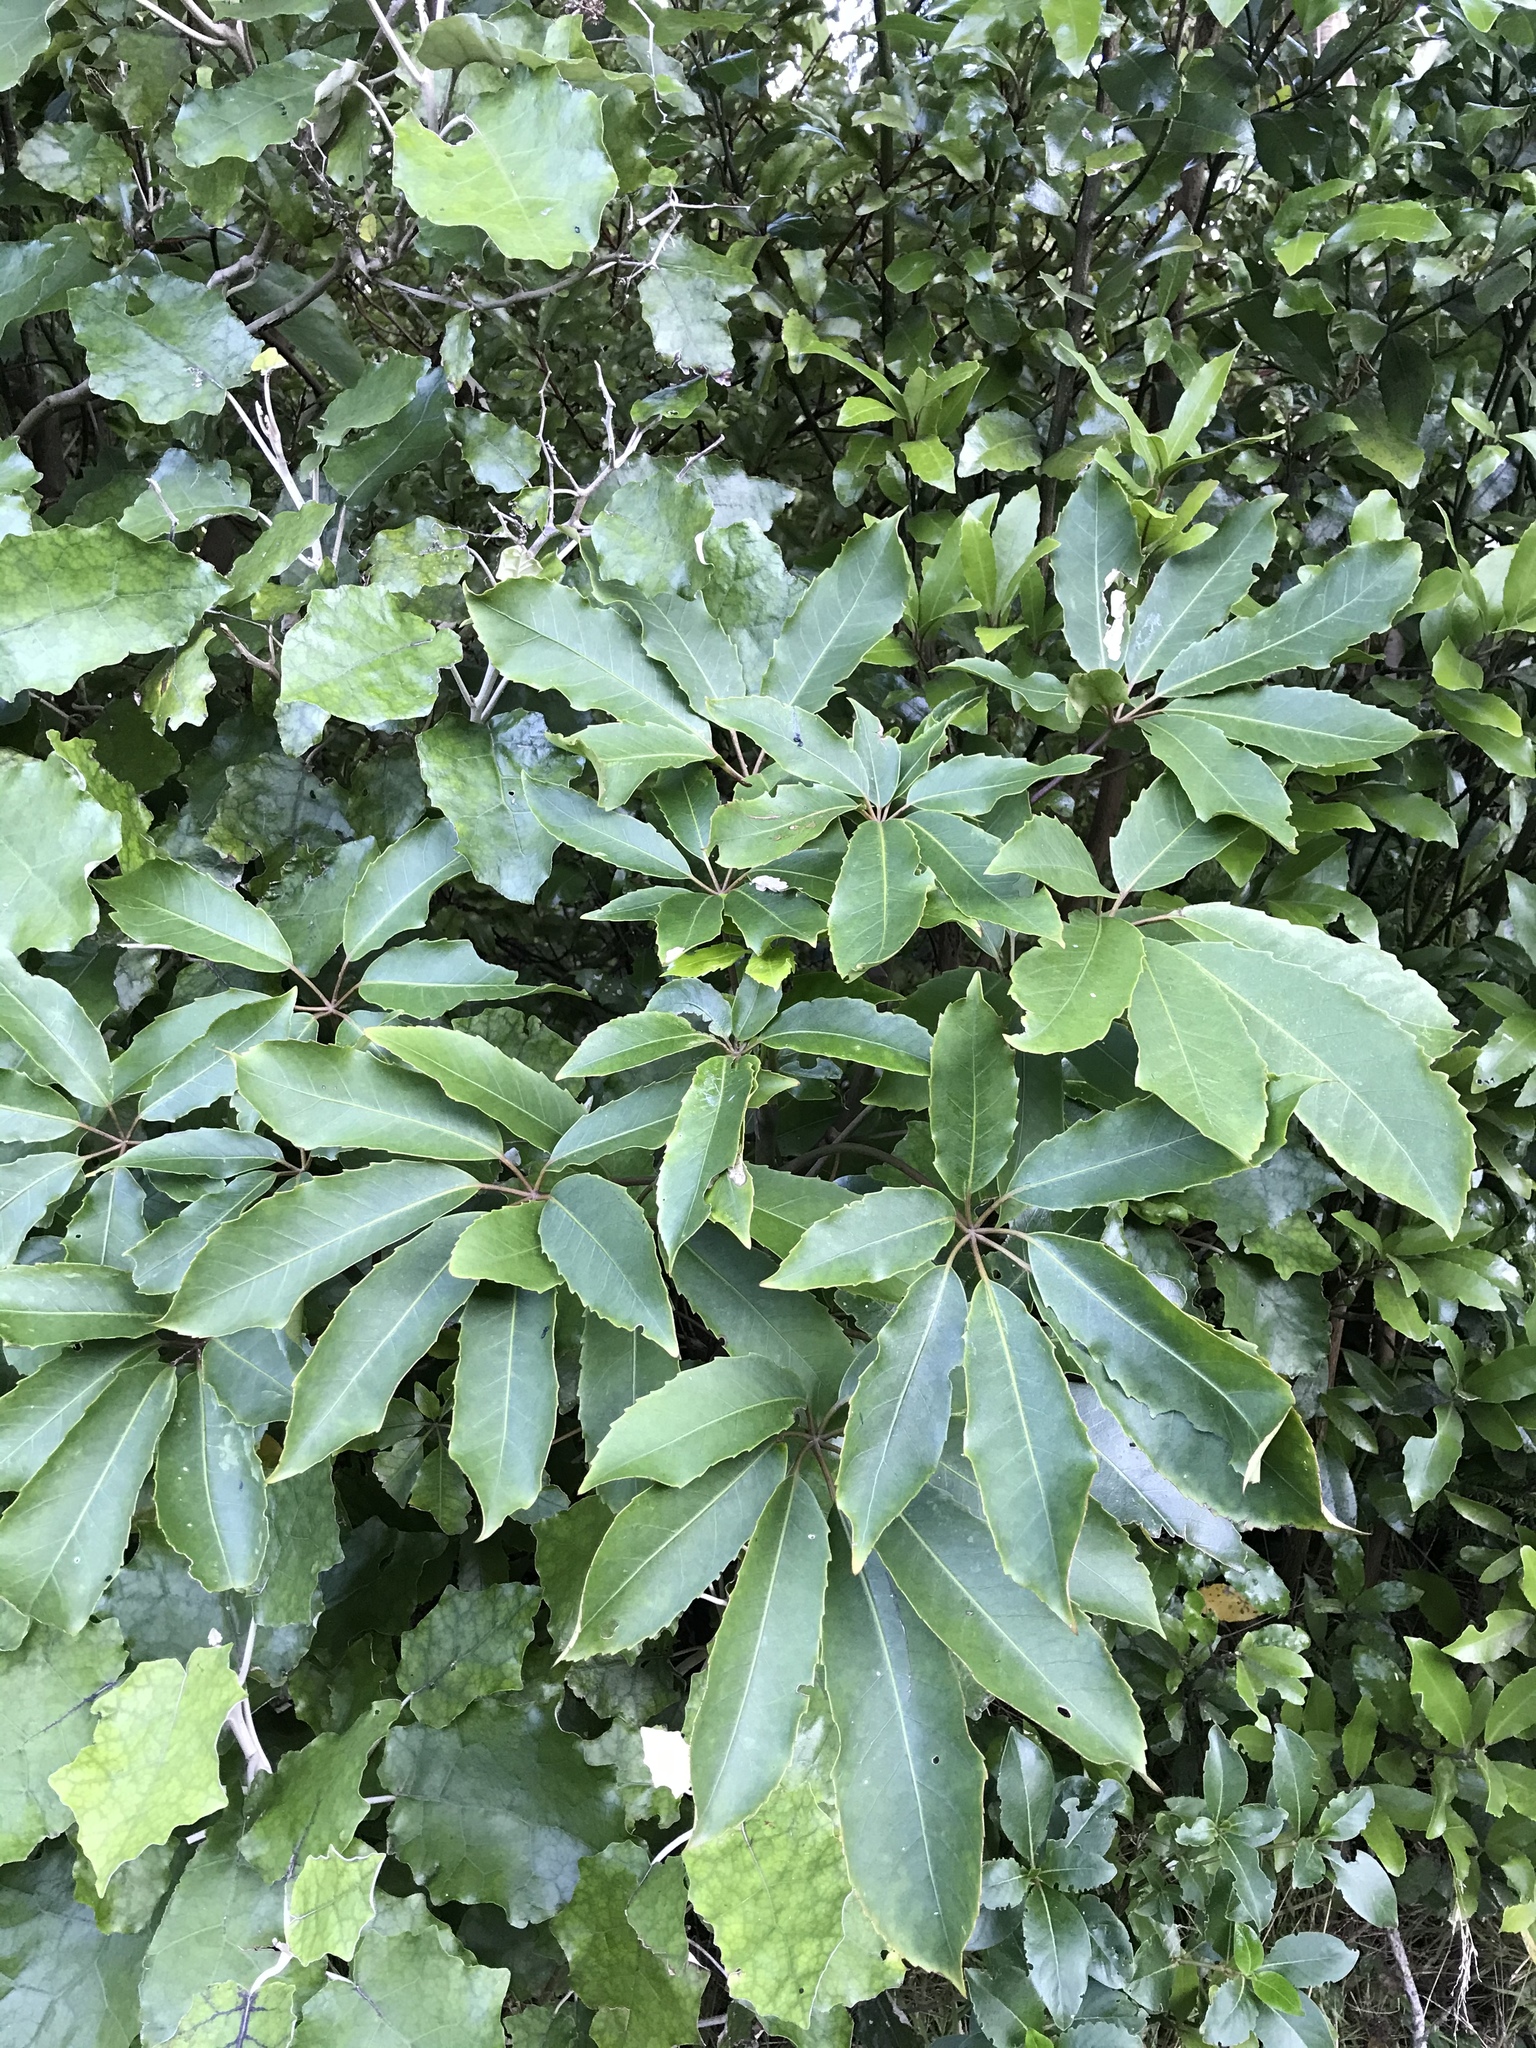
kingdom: Plantae
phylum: Tracheophyta
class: Magnoliopsida
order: Apiales
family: Araliaceae
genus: Neopanax
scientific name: Neopanax arboreus
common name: Five-fingers
